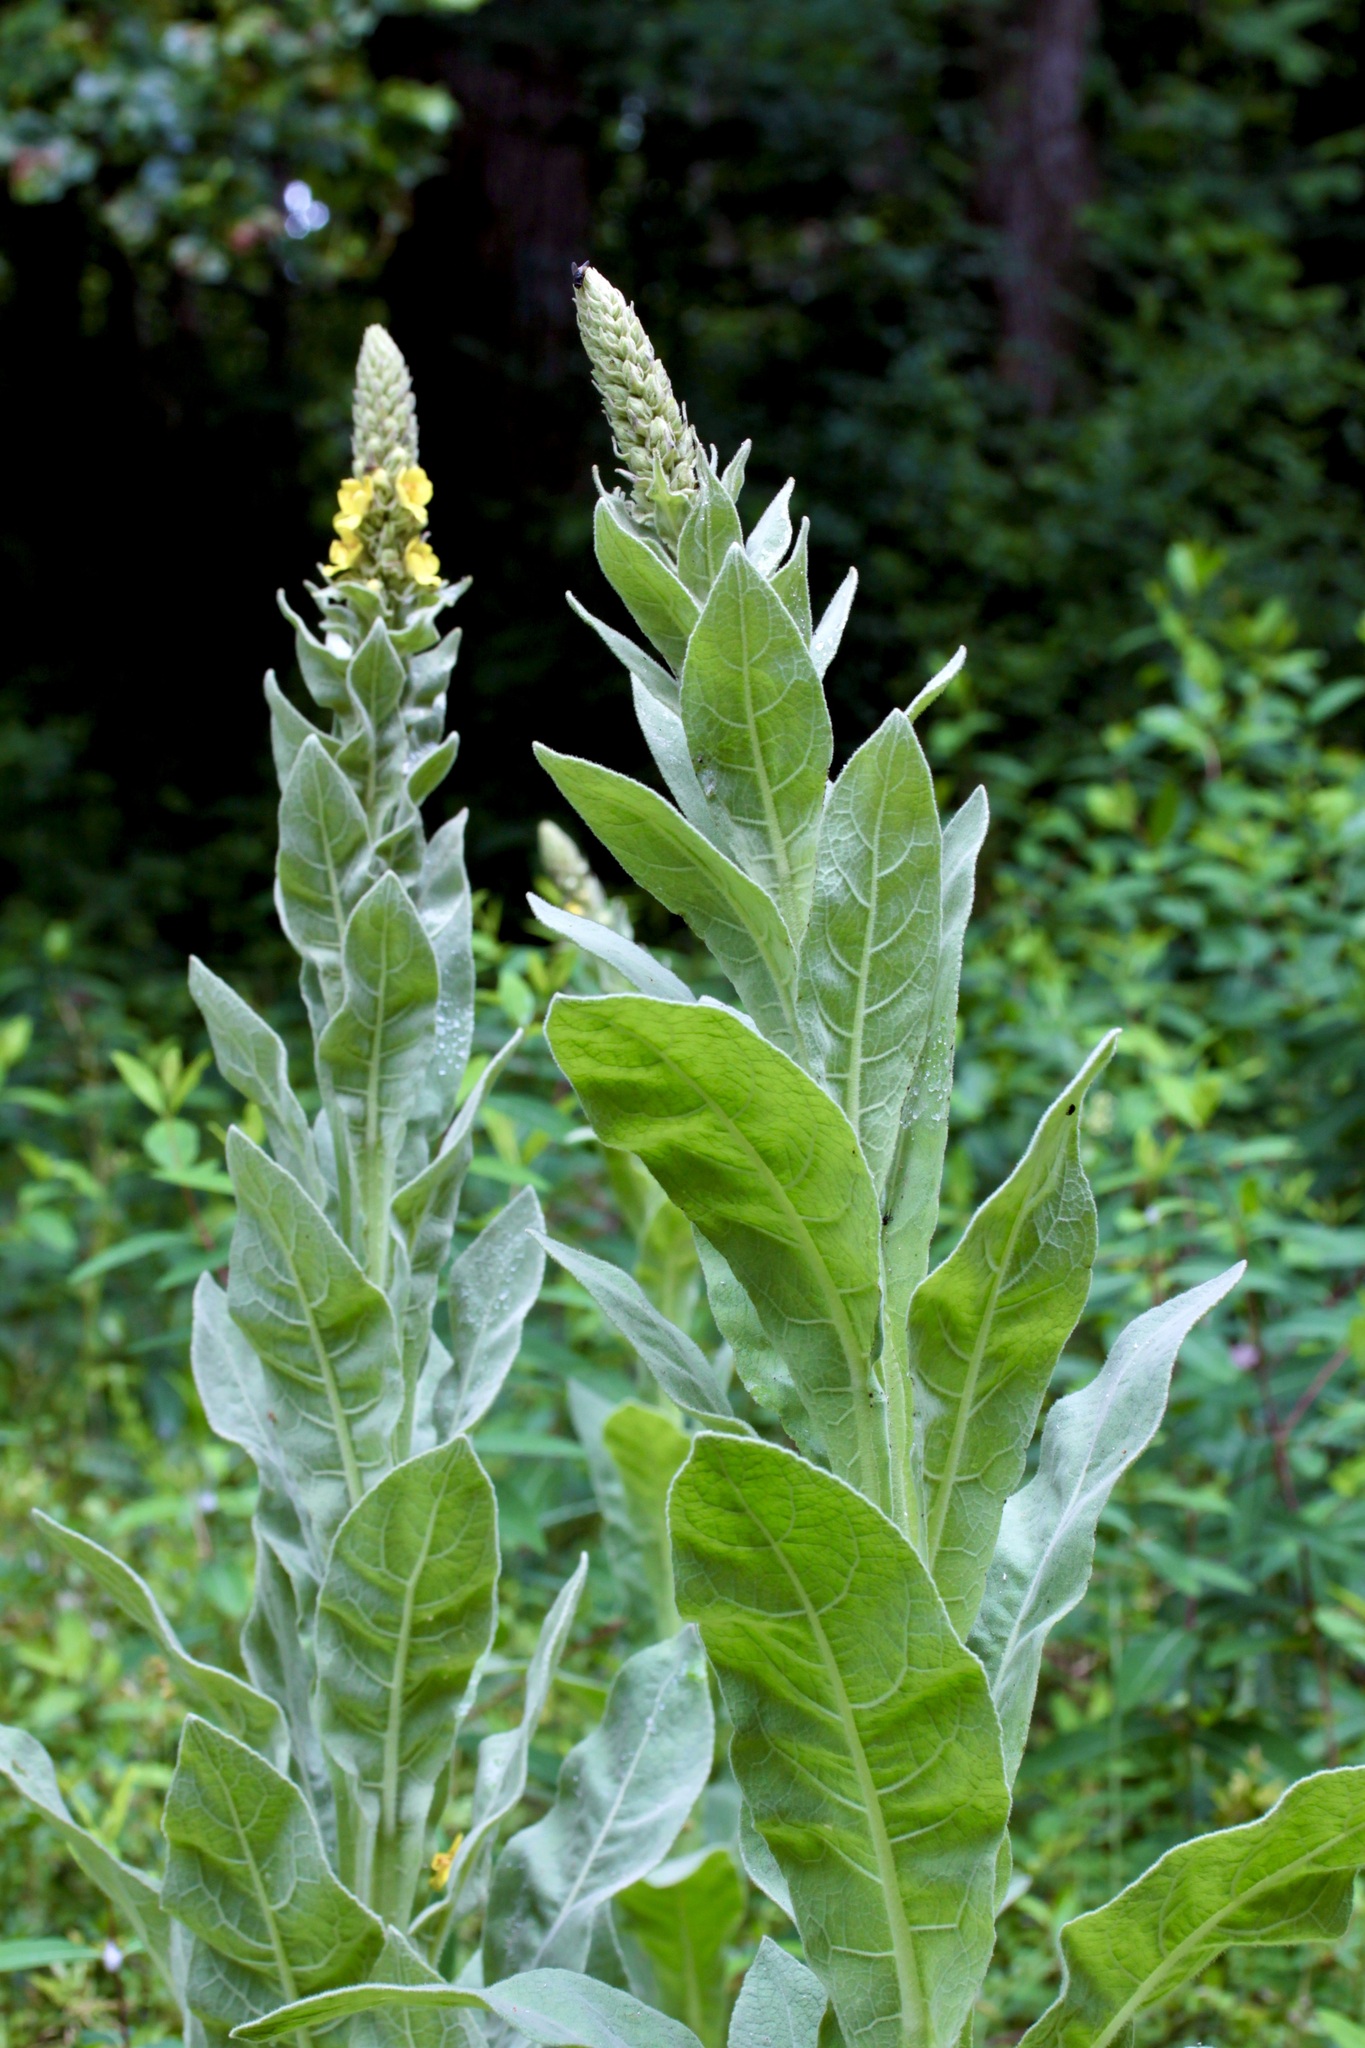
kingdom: Plantae
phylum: Tracheophyta
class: Magnoliopsida
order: Lamiales
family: Scrophulariaceae
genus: Verbascum
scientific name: Verbascum thapsus
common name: Common mullein
